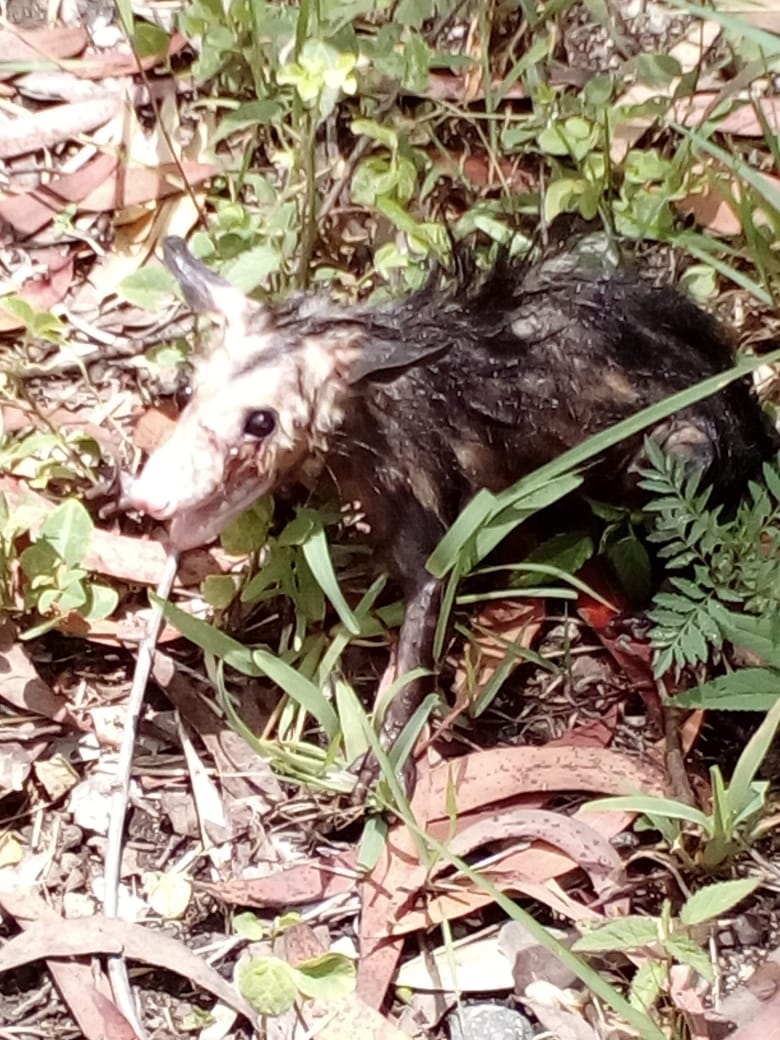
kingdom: Animalia
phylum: Chordata
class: Mammalia
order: Didelphimorphia
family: Didelphidae
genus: Didelphis
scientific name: Didelphis marsupialis
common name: Common opossum
